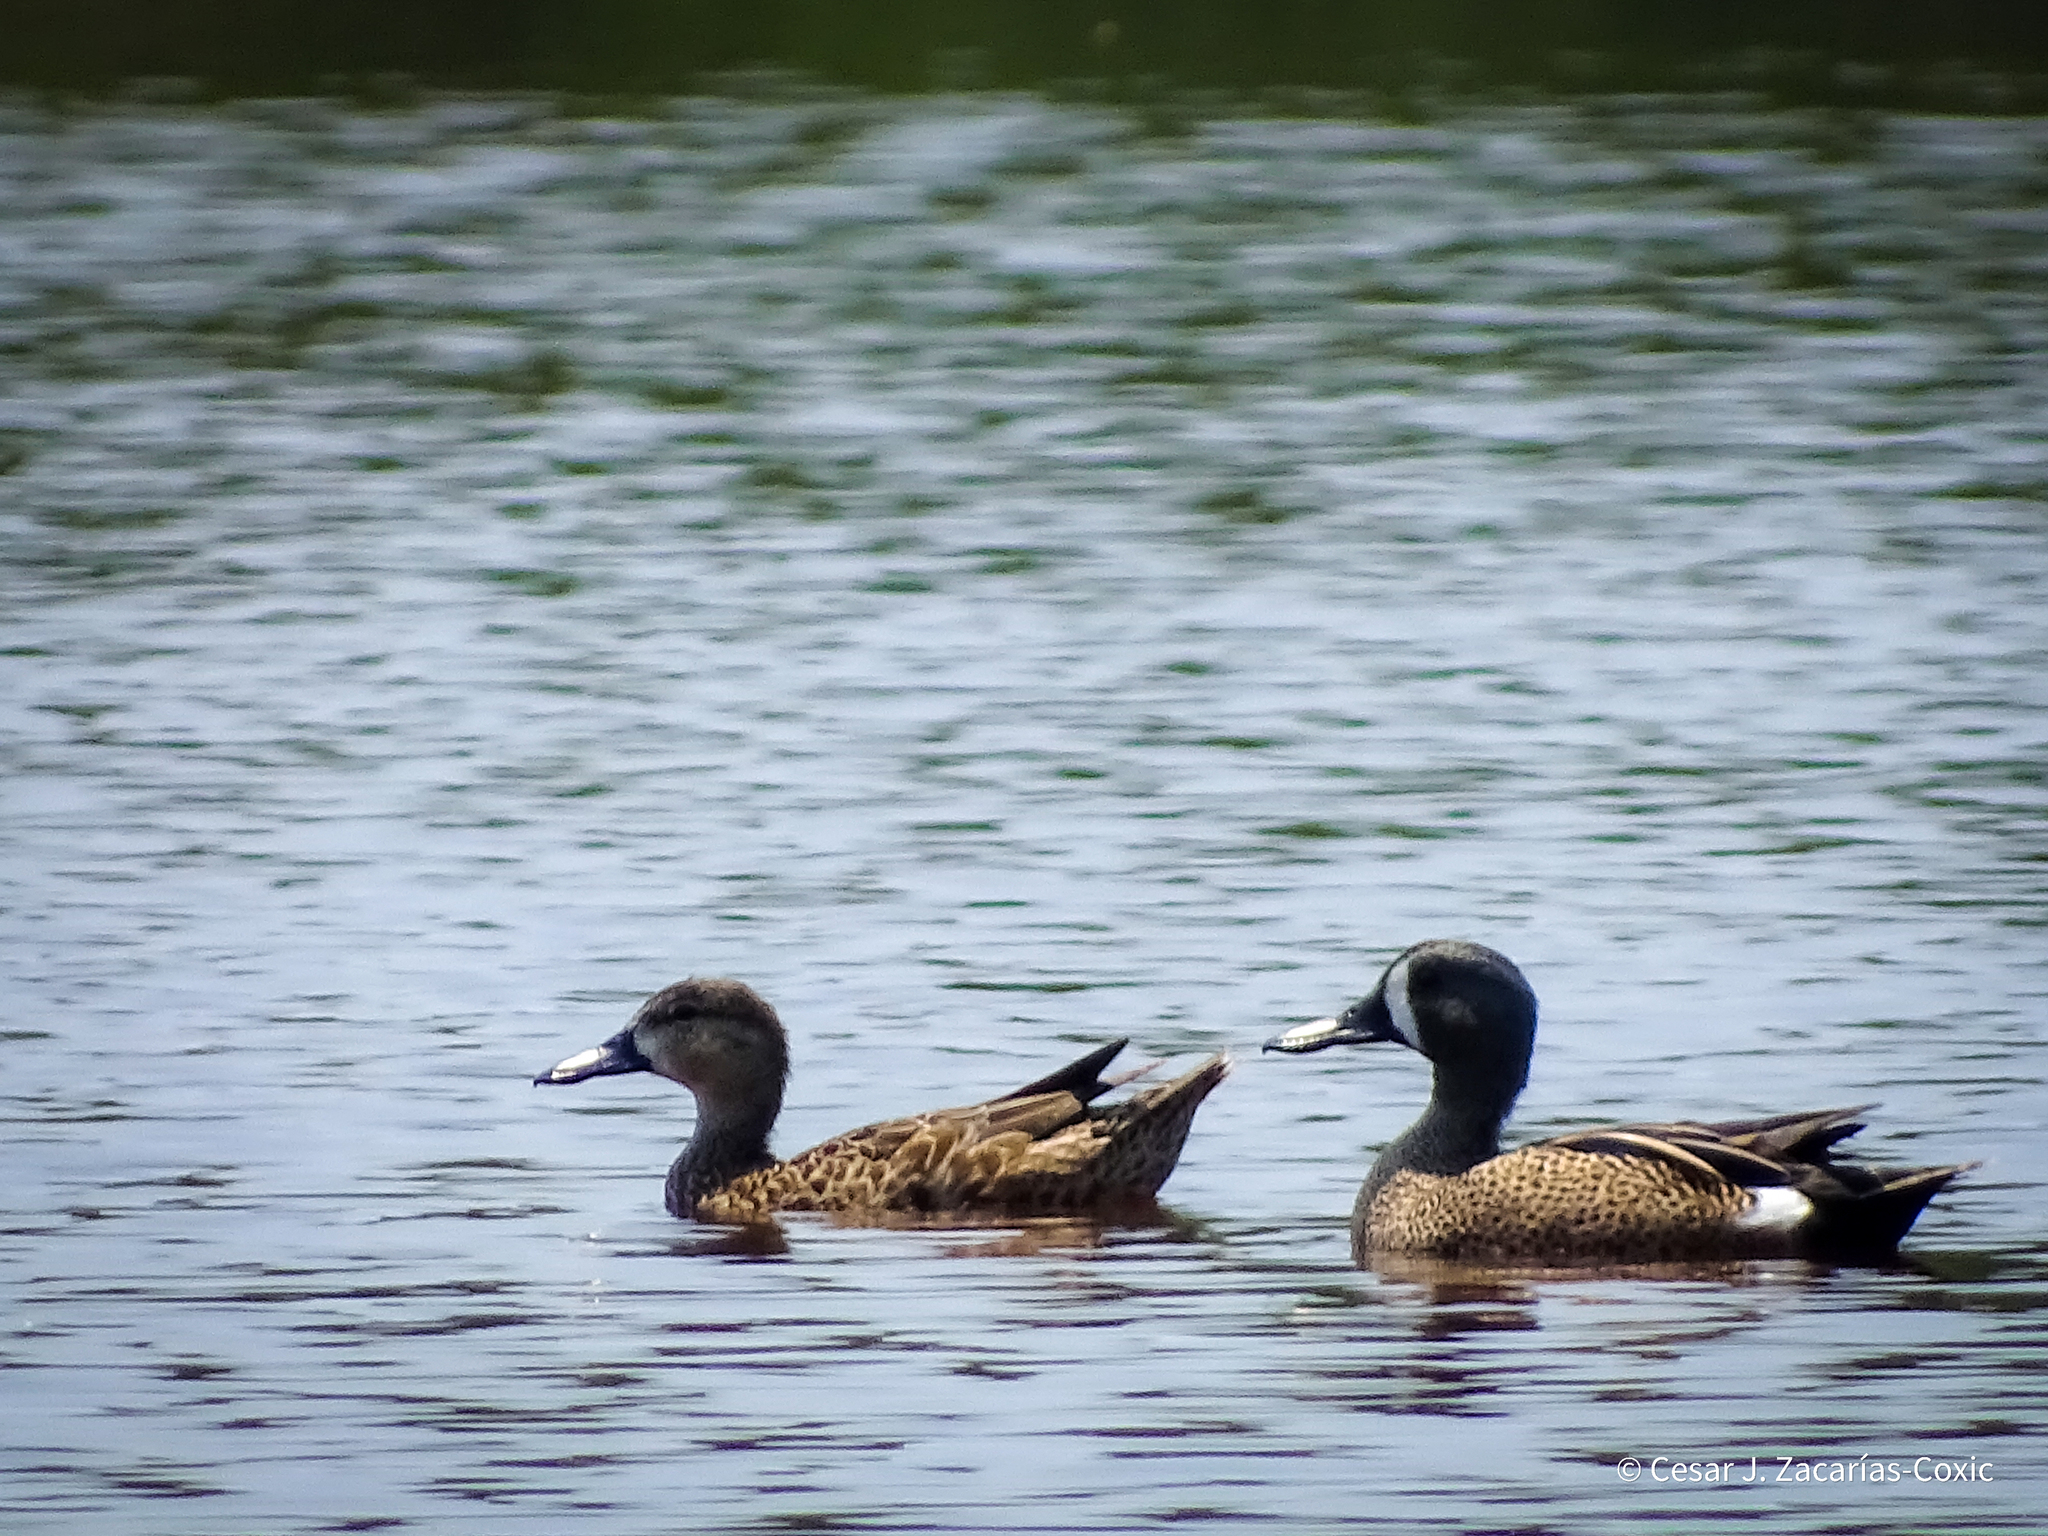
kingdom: Animalia
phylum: Chordata
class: Aves
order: Anseriformes
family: Anatidae
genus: Spatula
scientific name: Spatula discors
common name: Blue-winged teal
